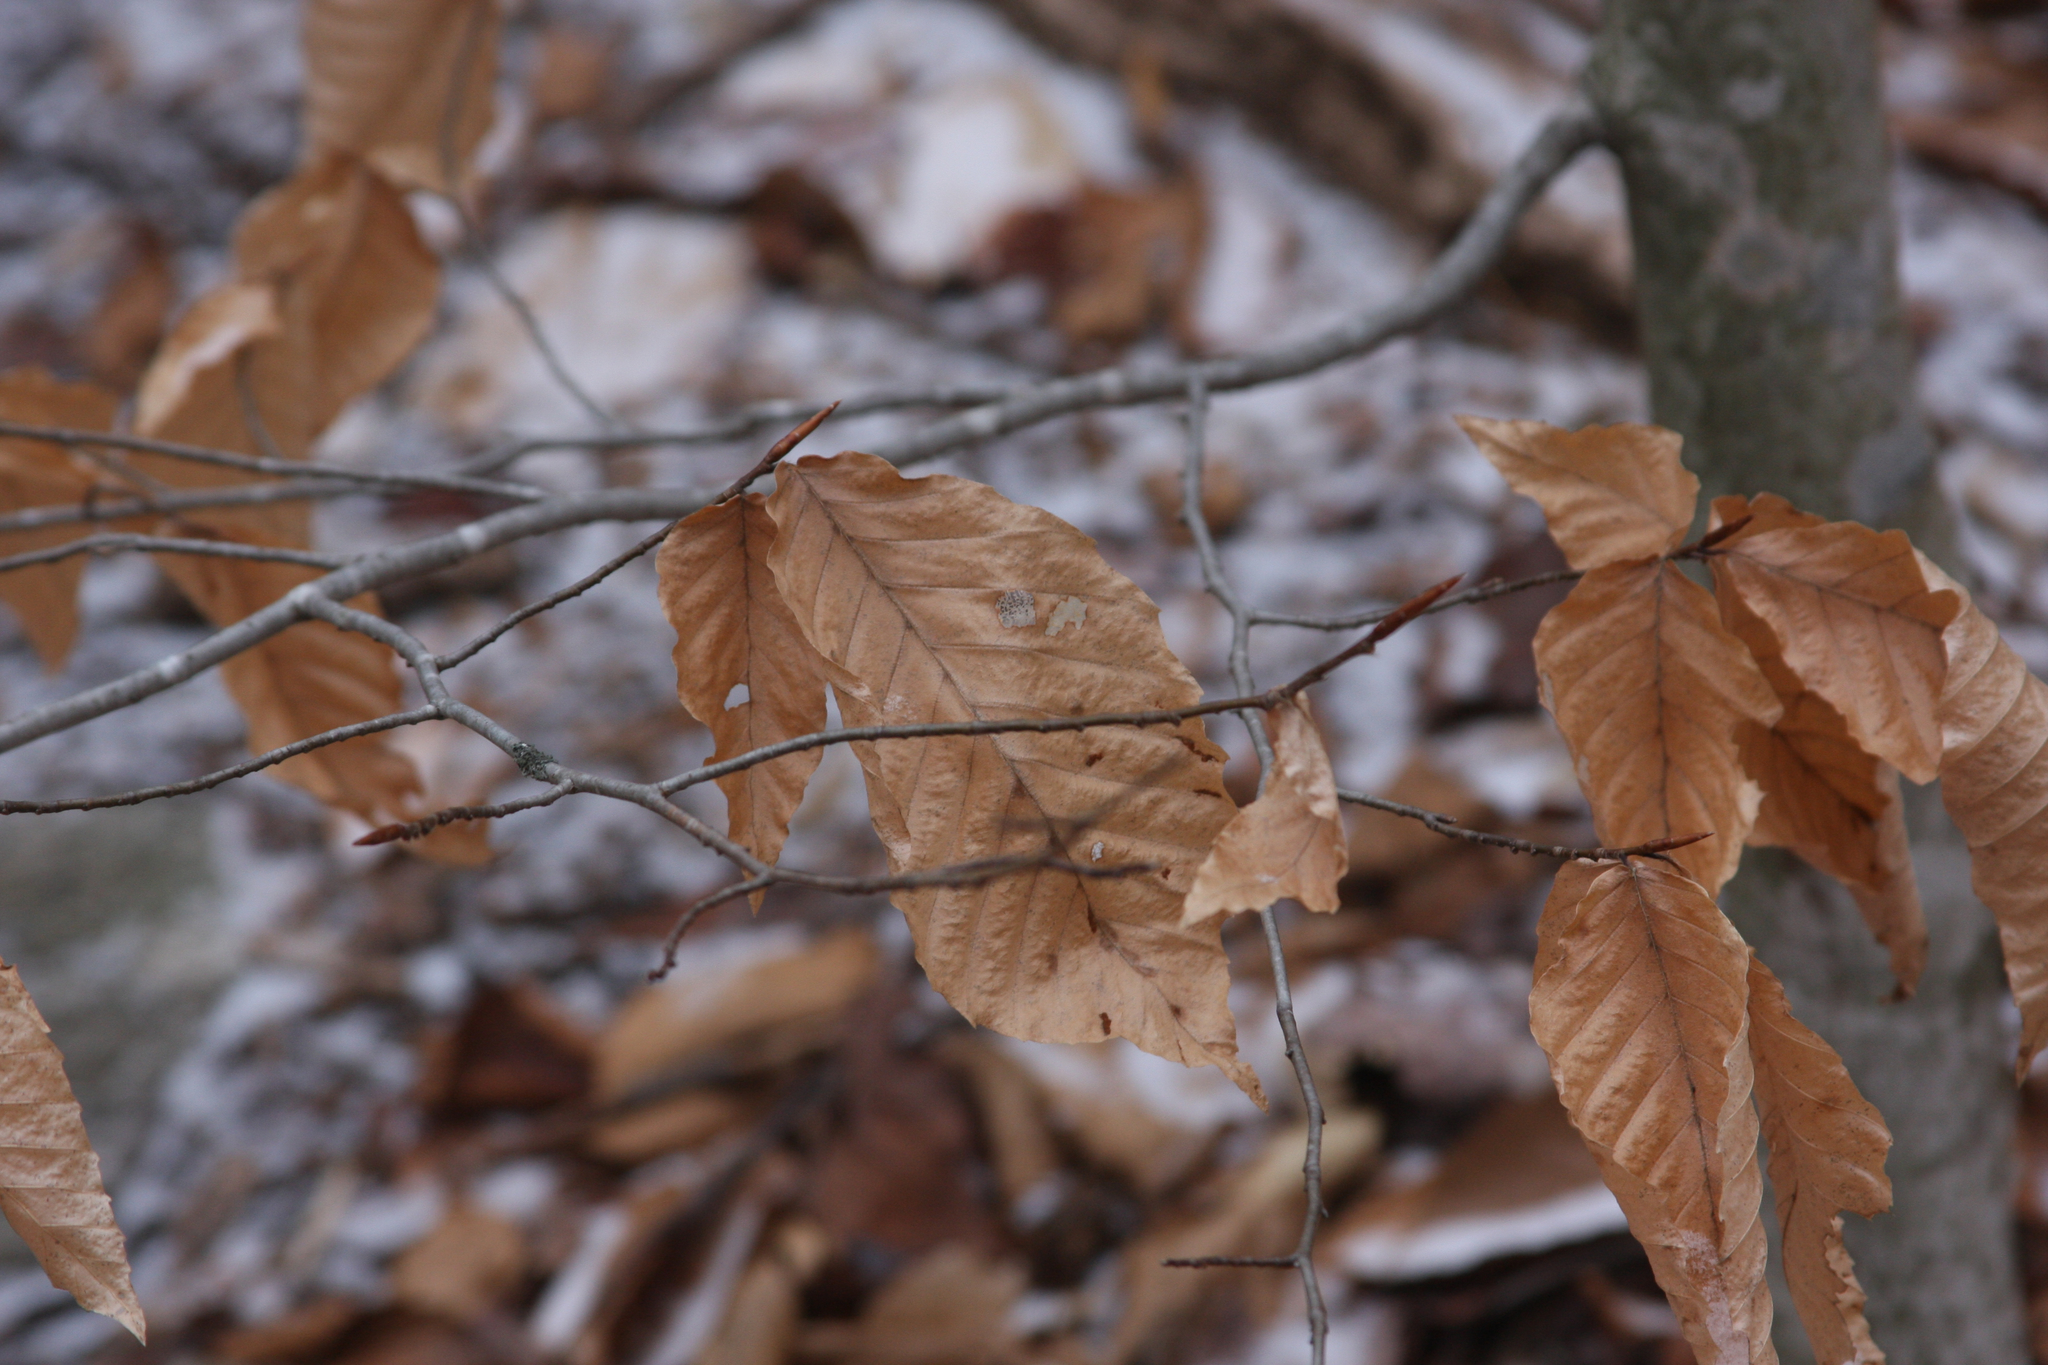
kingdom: Plantae
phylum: Tracheophyta
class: Magnoliopsida
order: Fagales
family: Fagaceae
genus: Fagus
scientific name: Fagus grandifolia
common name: American beech
